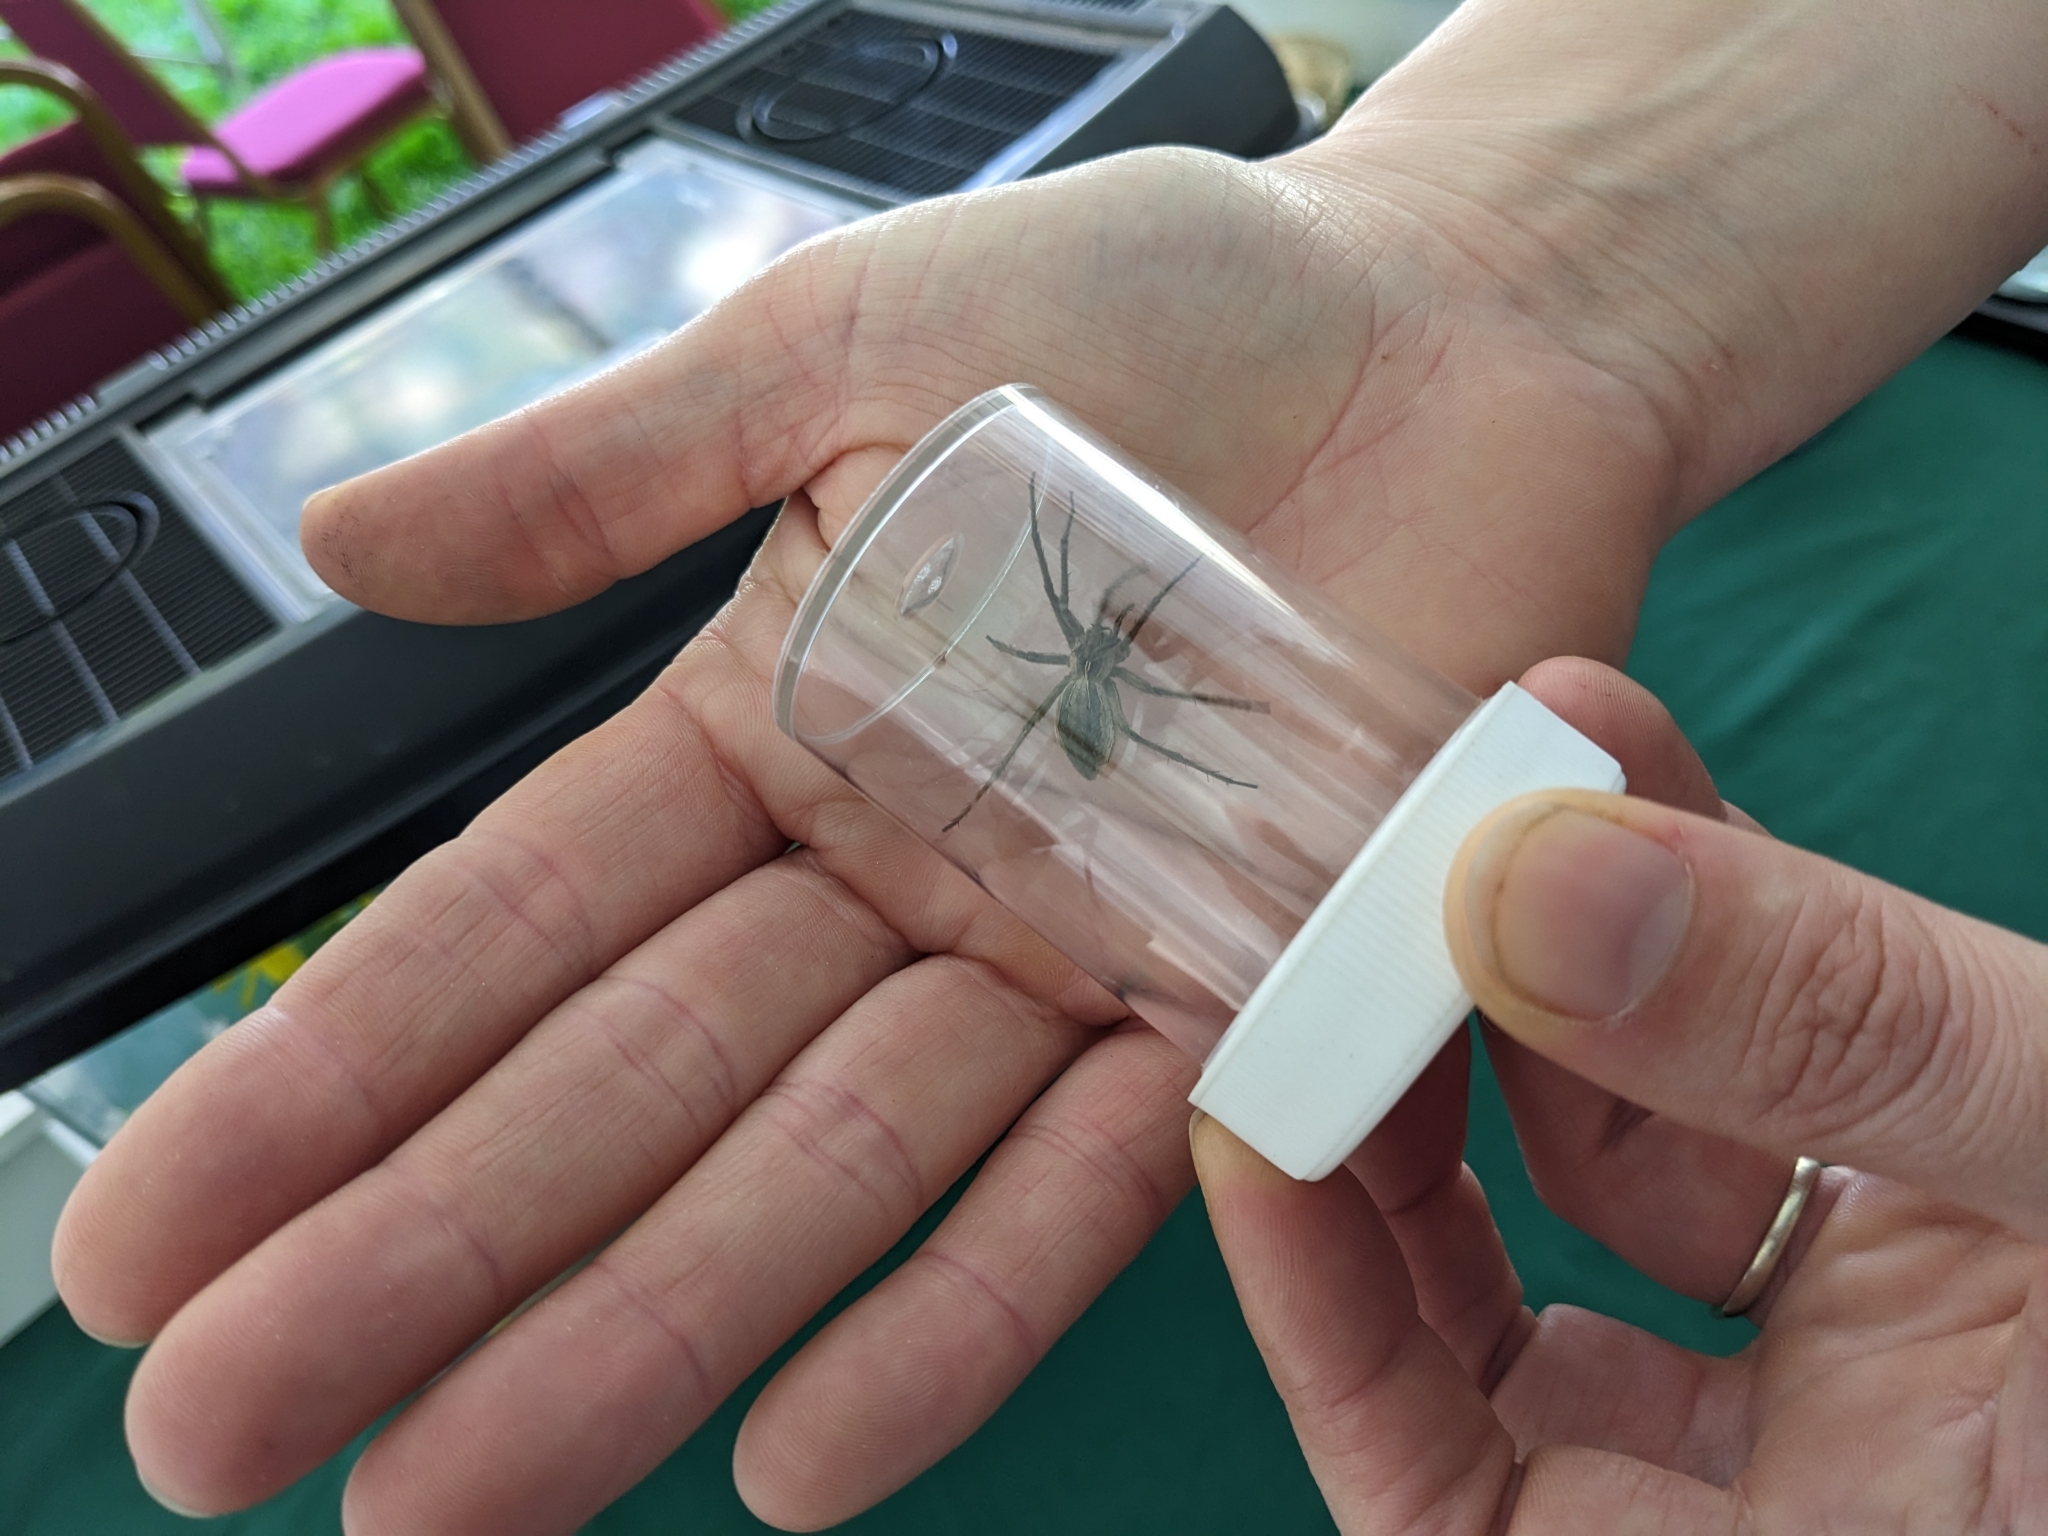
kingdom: Animalia
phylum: Arthropoda
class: Arachnida
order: Araneae
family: Pisauridae
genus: Pisaura
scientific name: Pisaura mirabilis
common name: Tent spider
